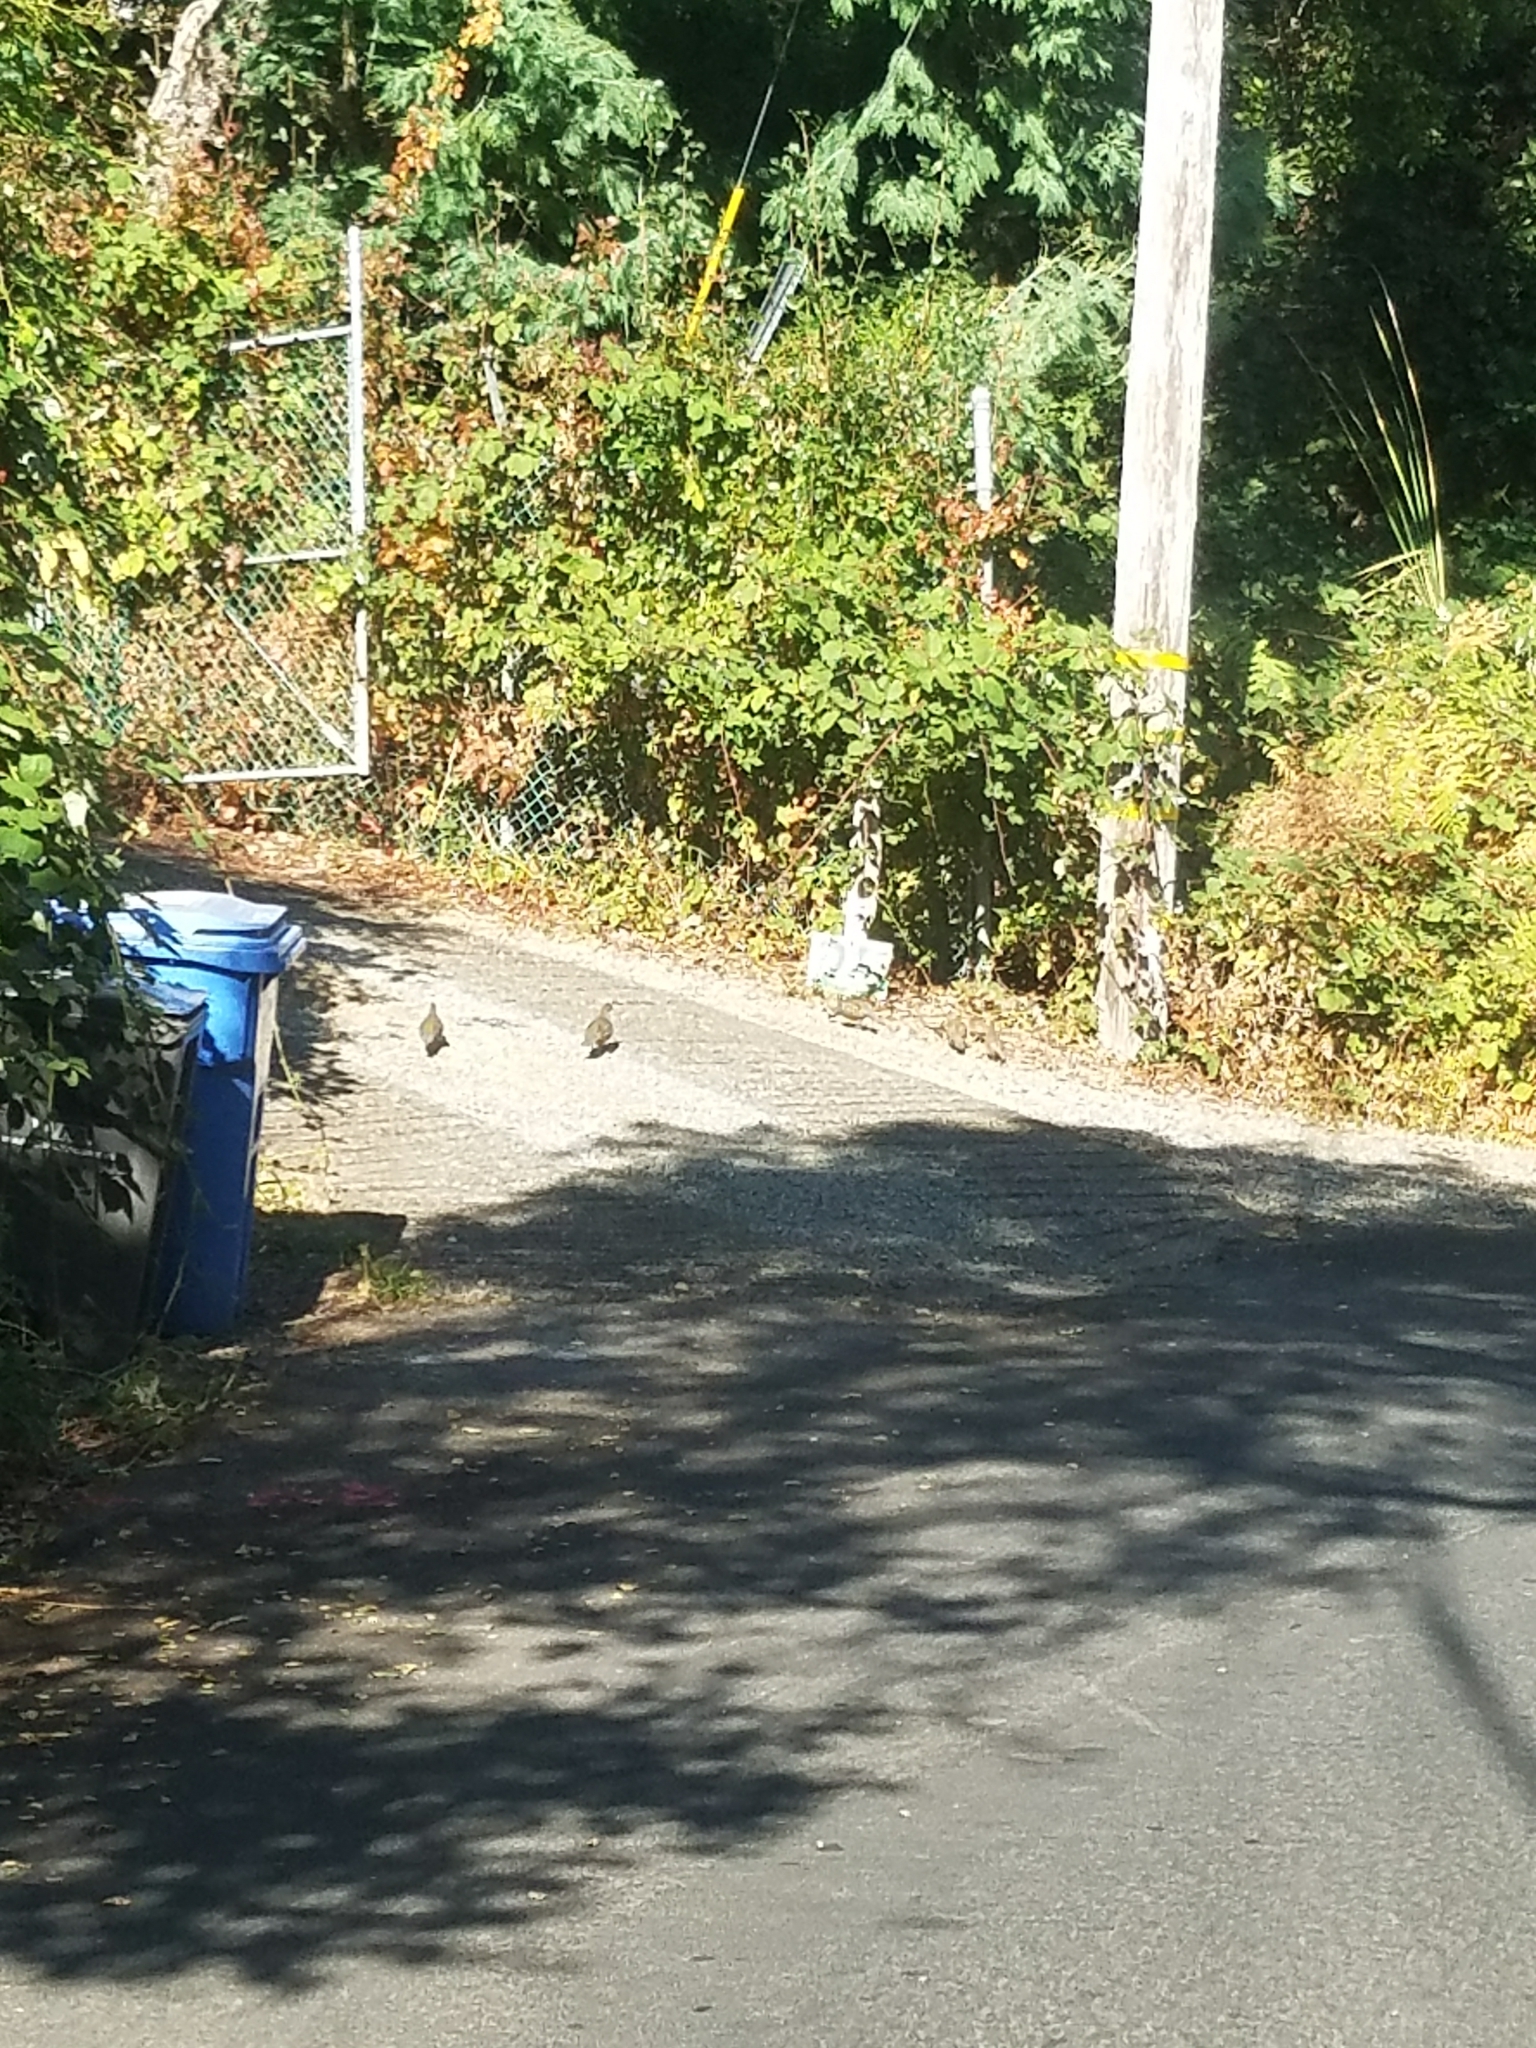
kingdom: Animalia
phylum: Chordata
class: Aves
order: Galliformes
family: Odontophoridae
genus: Callipepla
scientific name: Callipepla californica
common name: California quail
